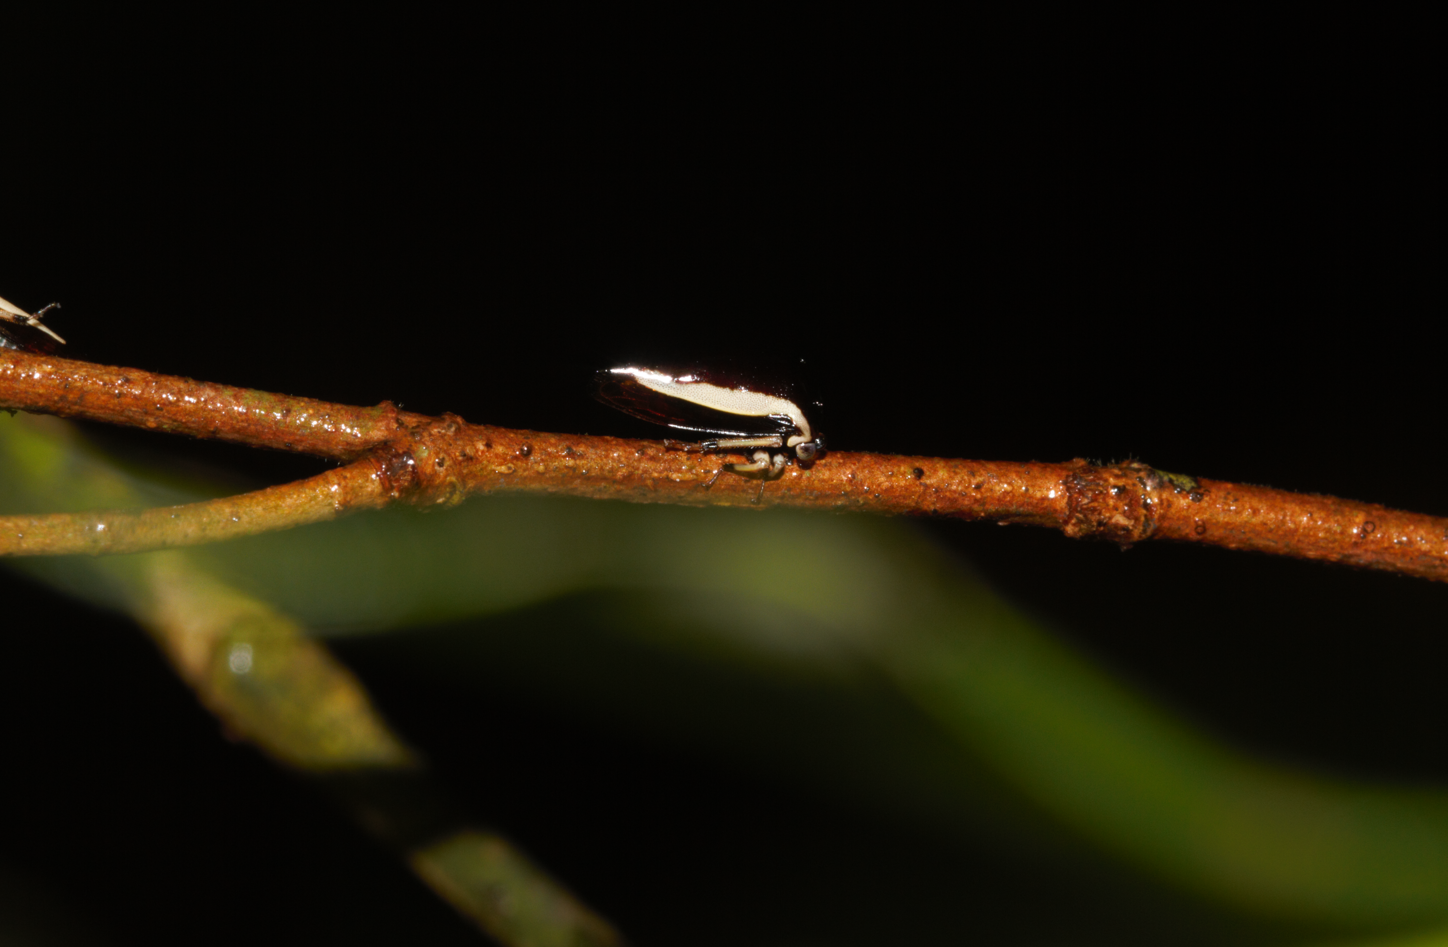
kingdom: Animalia
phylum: Arthropoda
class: Insecta
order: Hemiptera
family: Membracidae
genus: Darnis
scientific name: Darnis lateralis
